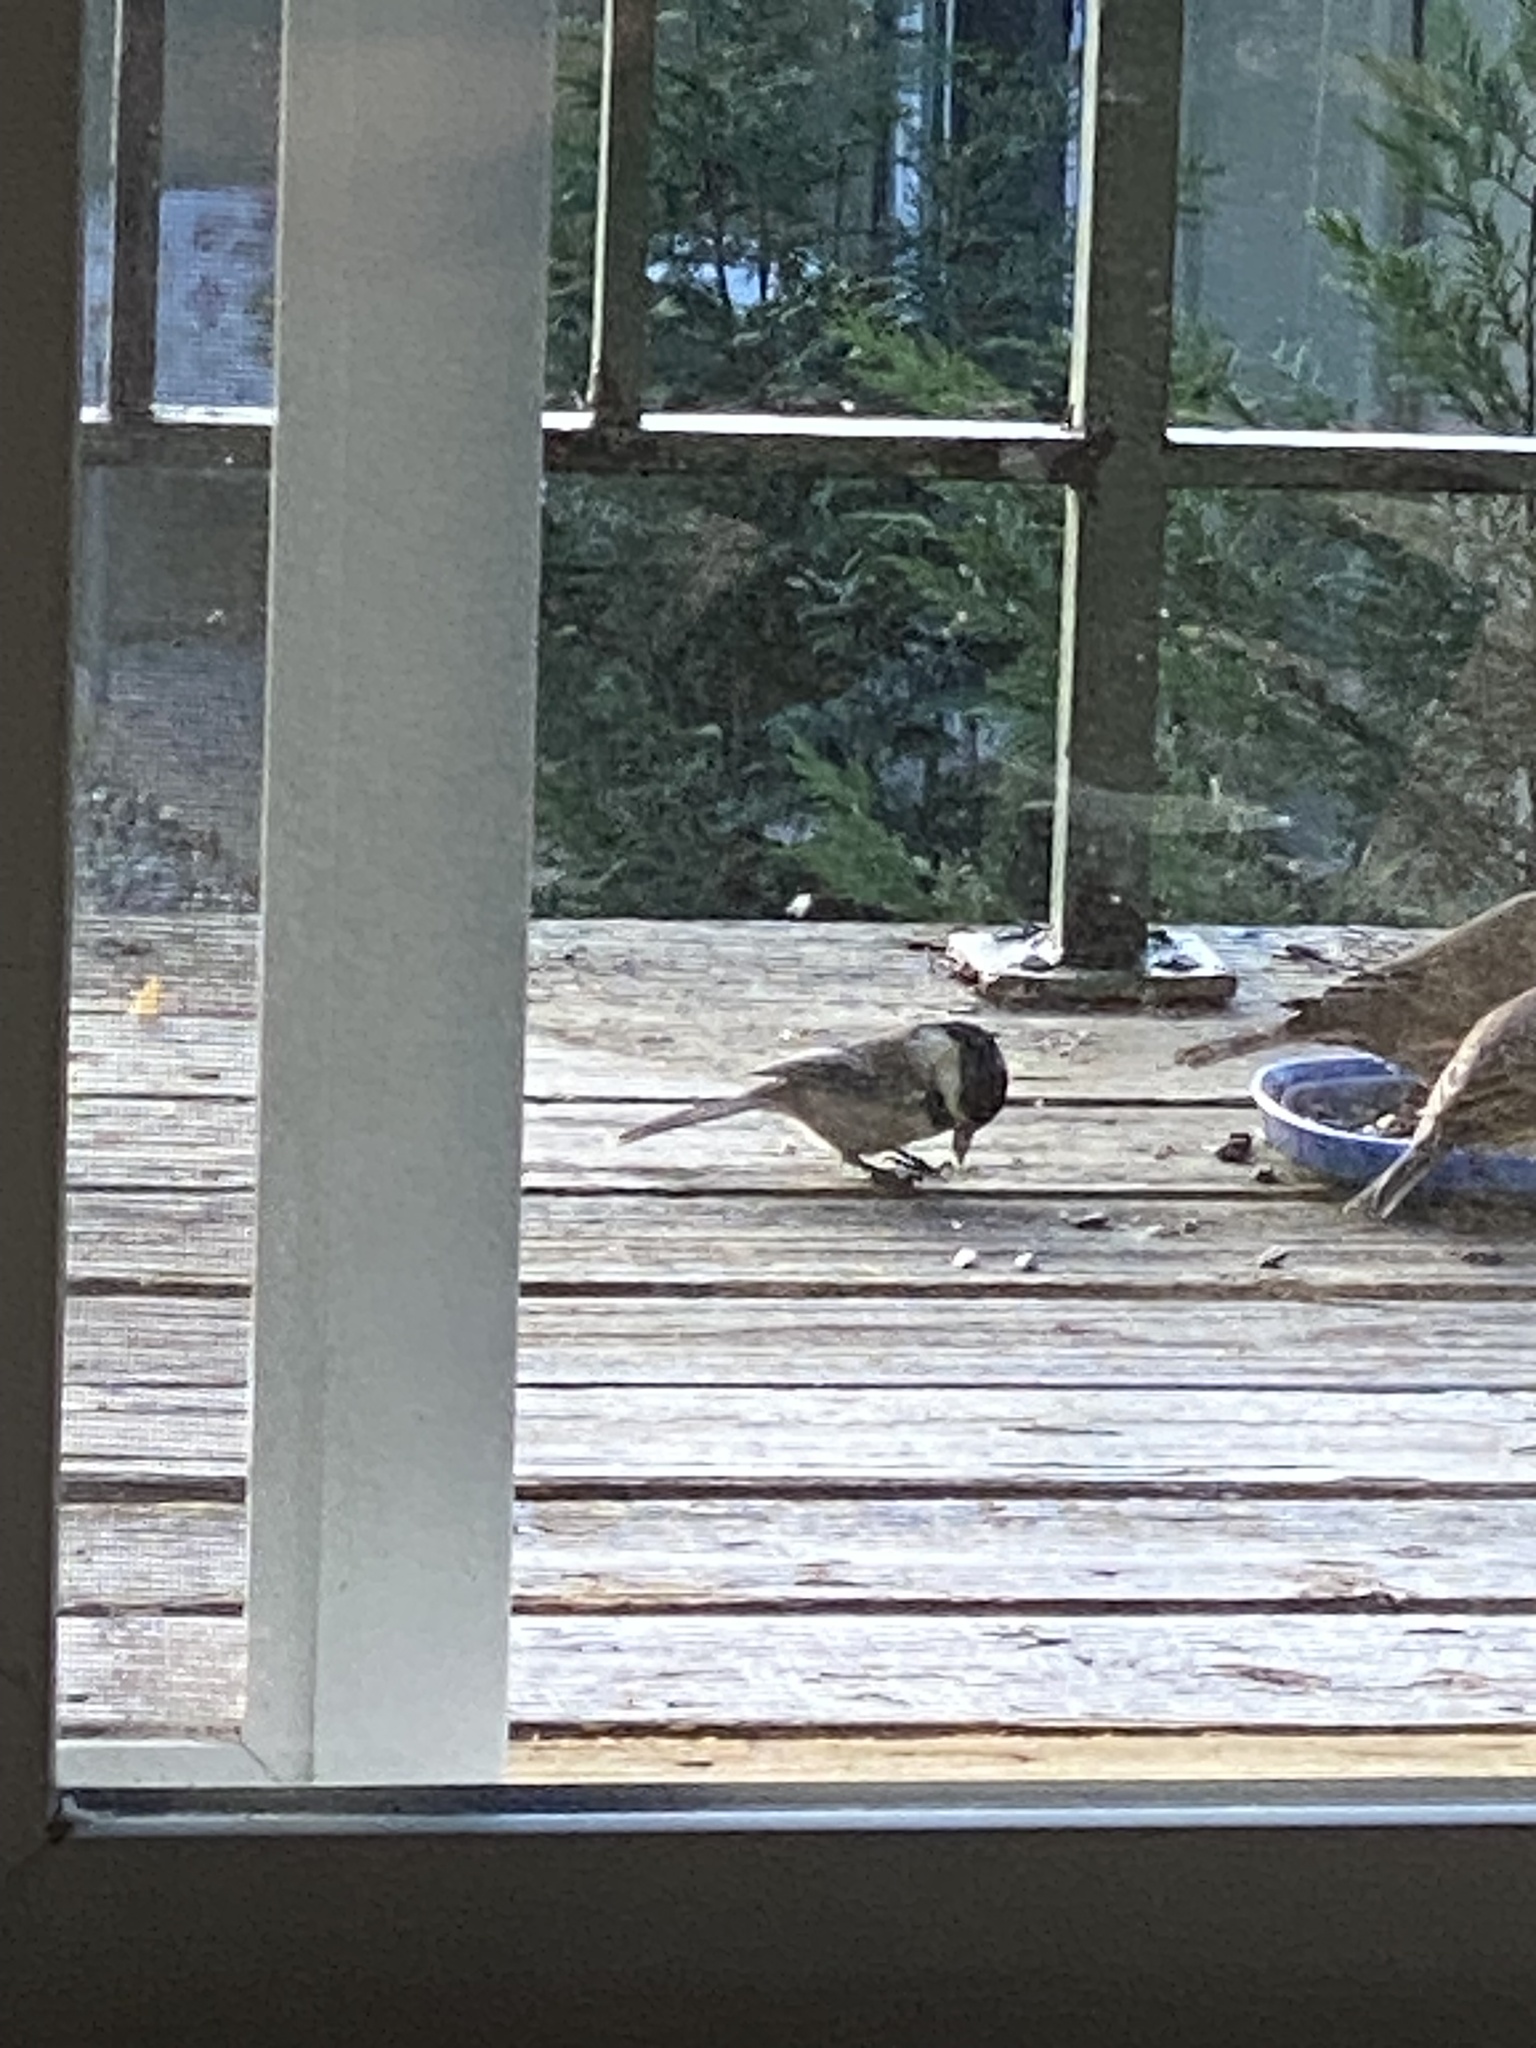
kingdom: Animalia
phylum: Chordata
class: Aves
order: Passeriformes
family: Paridae
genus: Poecile
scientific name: Poecile atricapillus
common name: Black-capped chickadee
